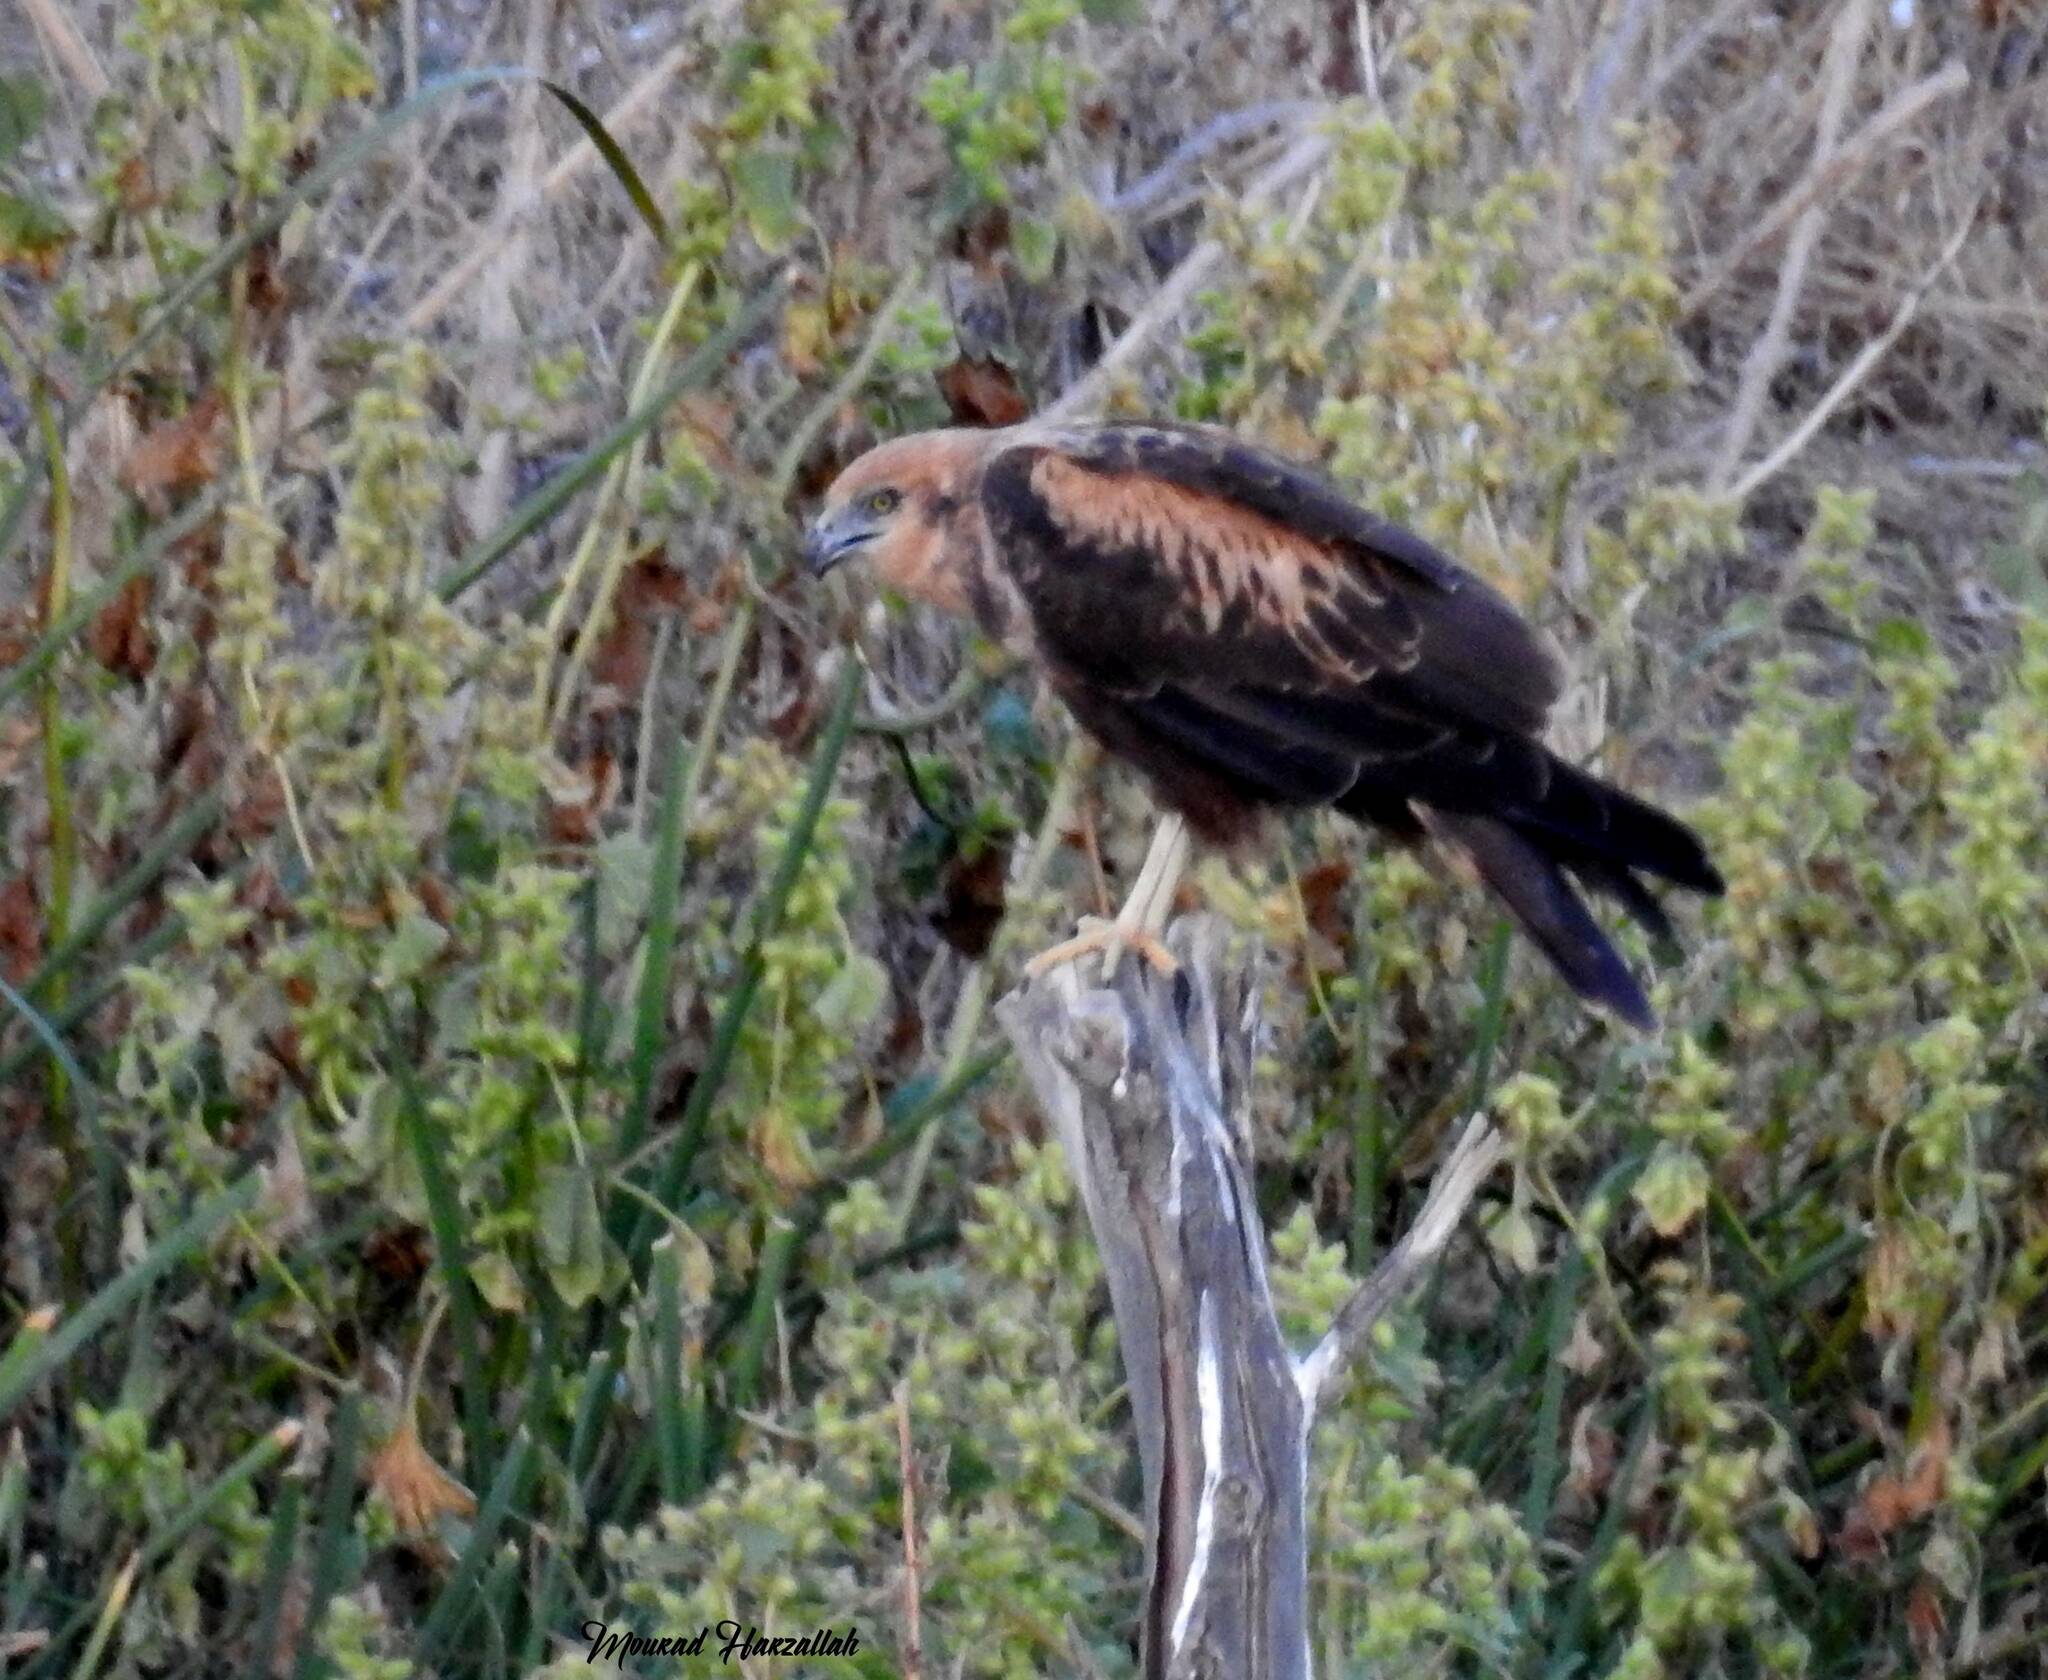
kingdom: Animalia
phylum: Chordata
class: Aves
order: Accipitriformes
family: Accipitridae
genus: Circus
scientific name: Circus aeruginosus
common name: Western marsh harrier
